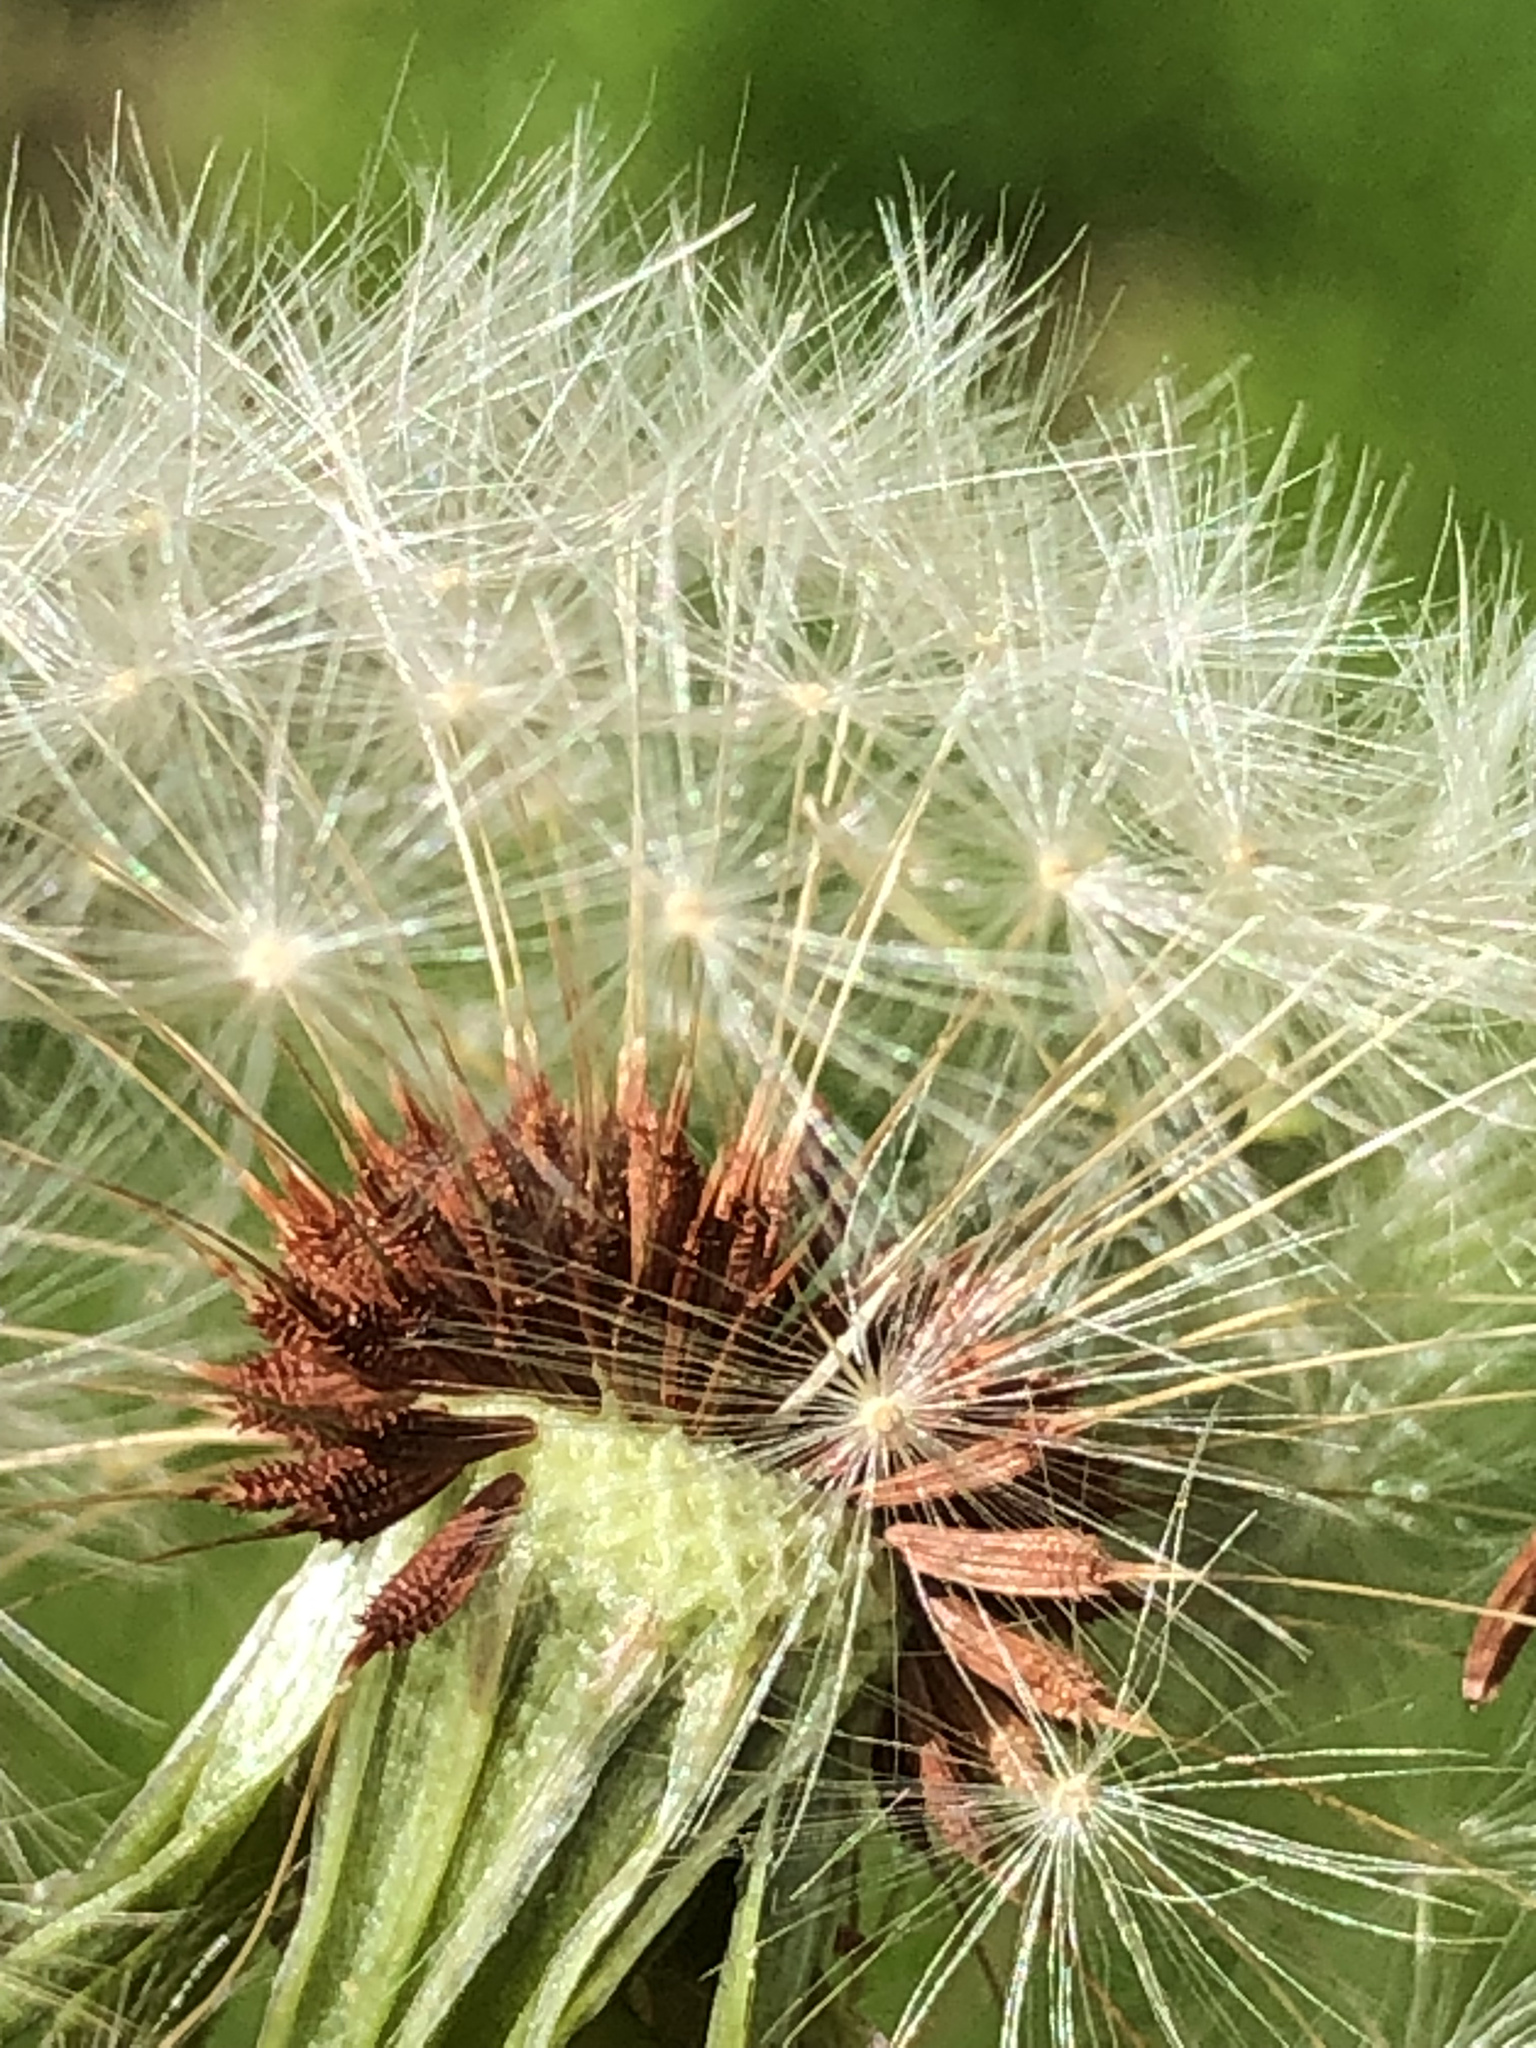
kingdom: Plantae
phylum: Tracheophyta
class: Magnoliopsida
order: Asterales
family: Asteraceae
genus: Taraxacum
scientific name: Taraxacum erythrospermum
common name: Rock dandelion
